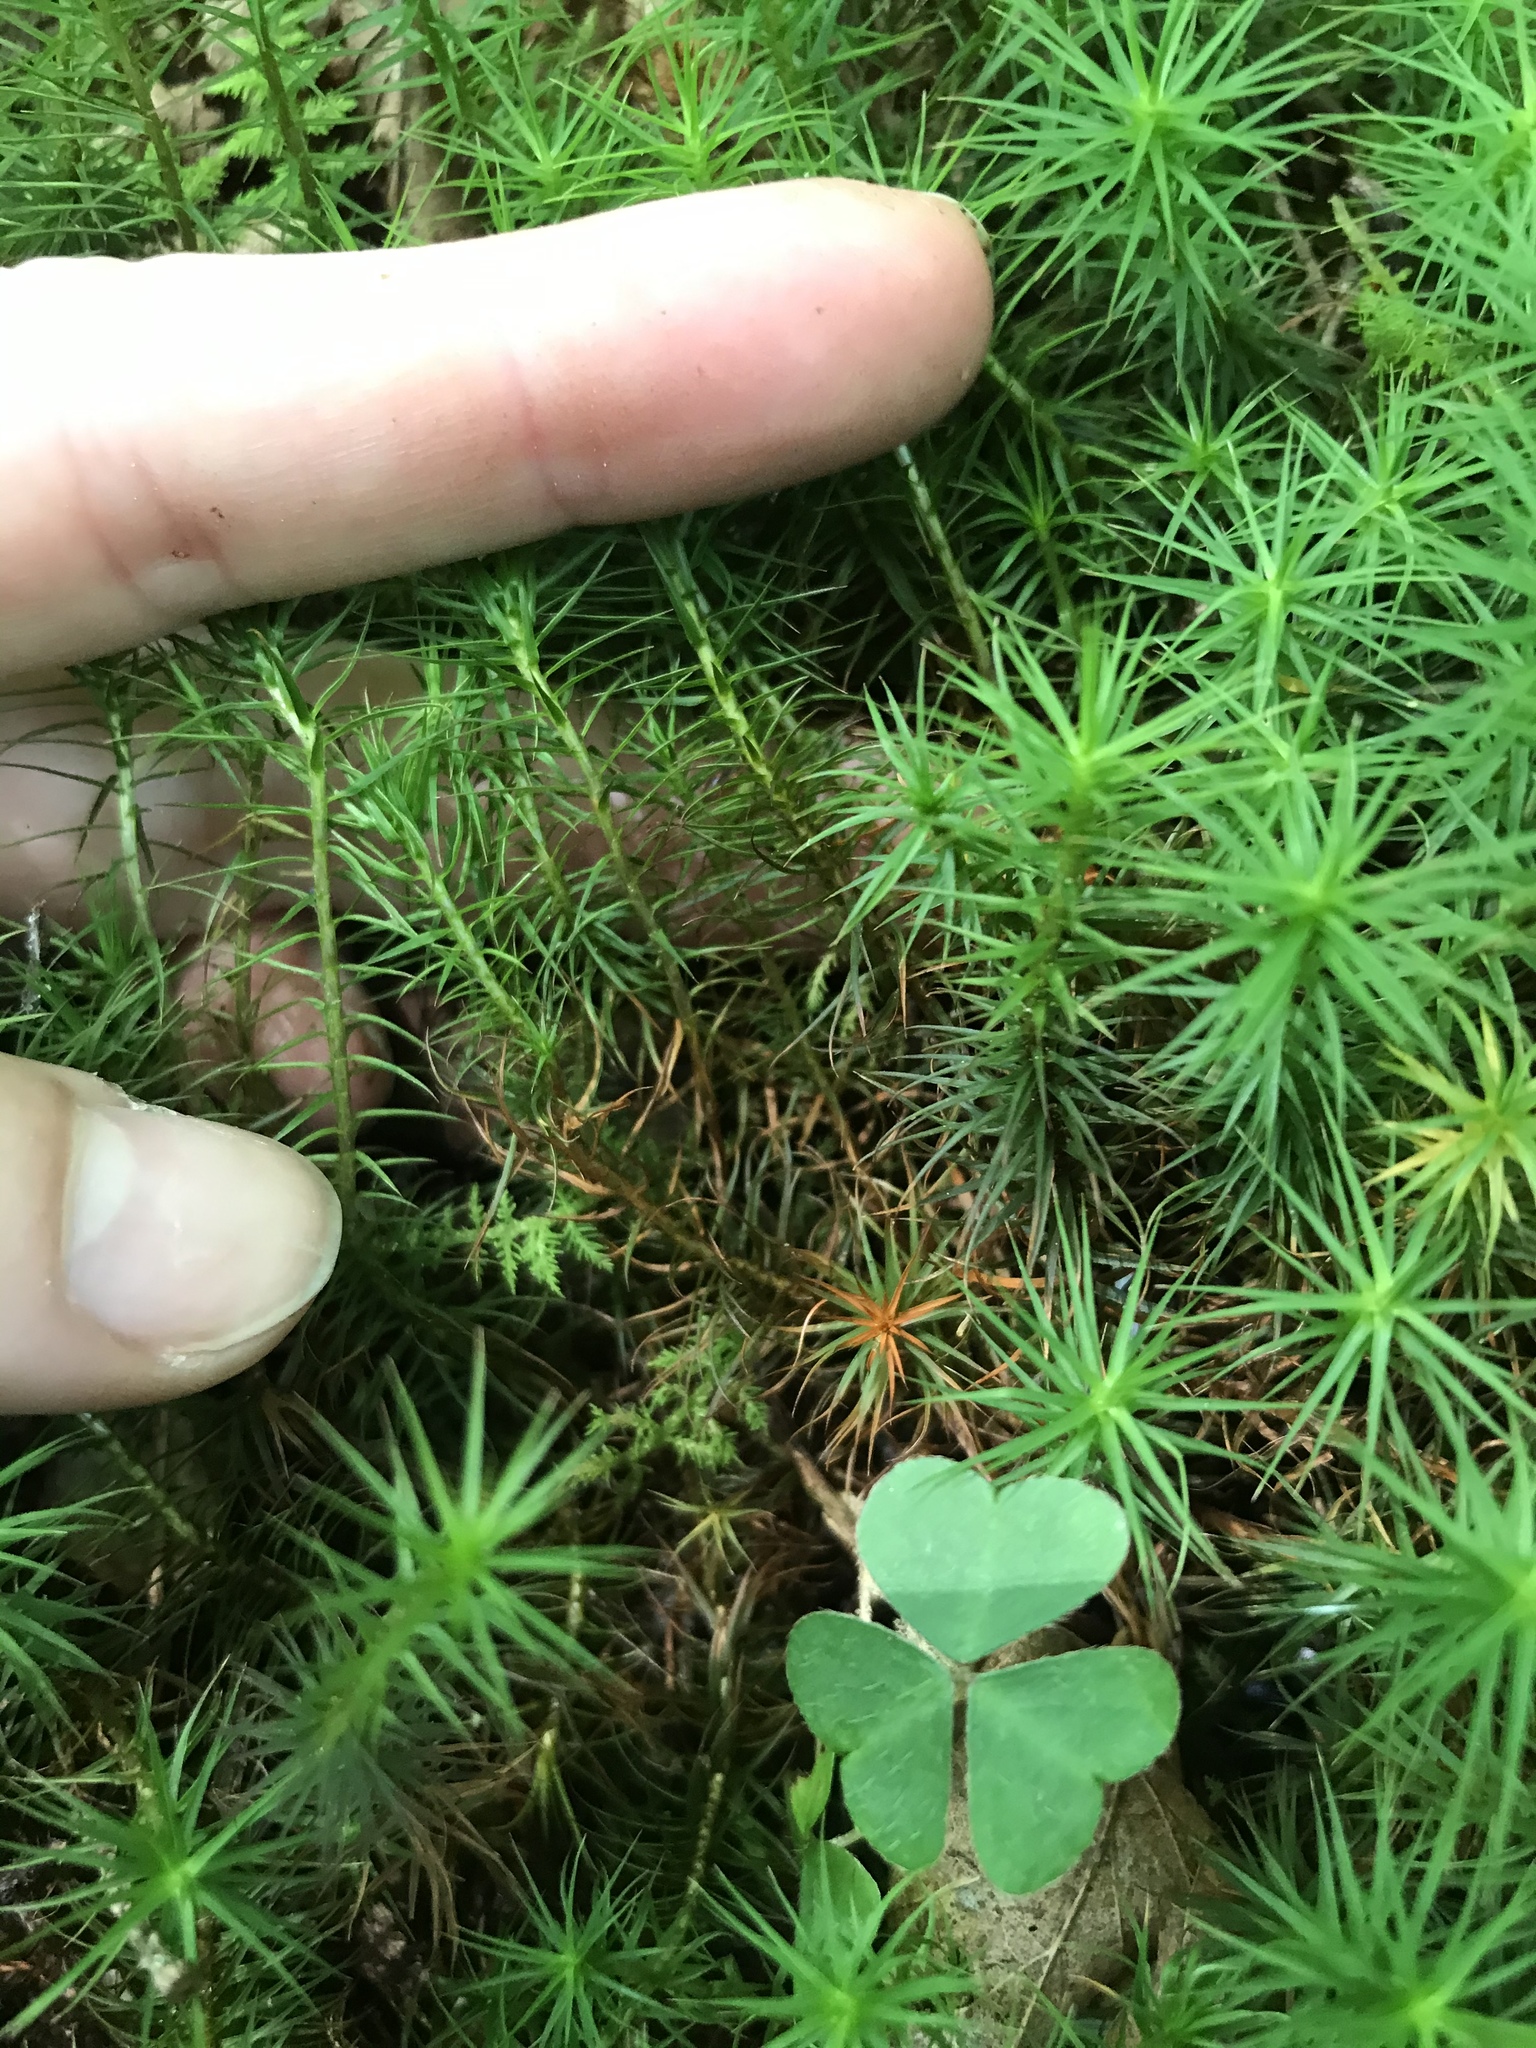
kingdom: Plantae
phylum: Bryophyta
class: Polytrichopsida
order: Polytrichales
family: Polytrichaceae
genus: Polytrichum
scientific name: Polytrichum commune
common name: Common haircap
